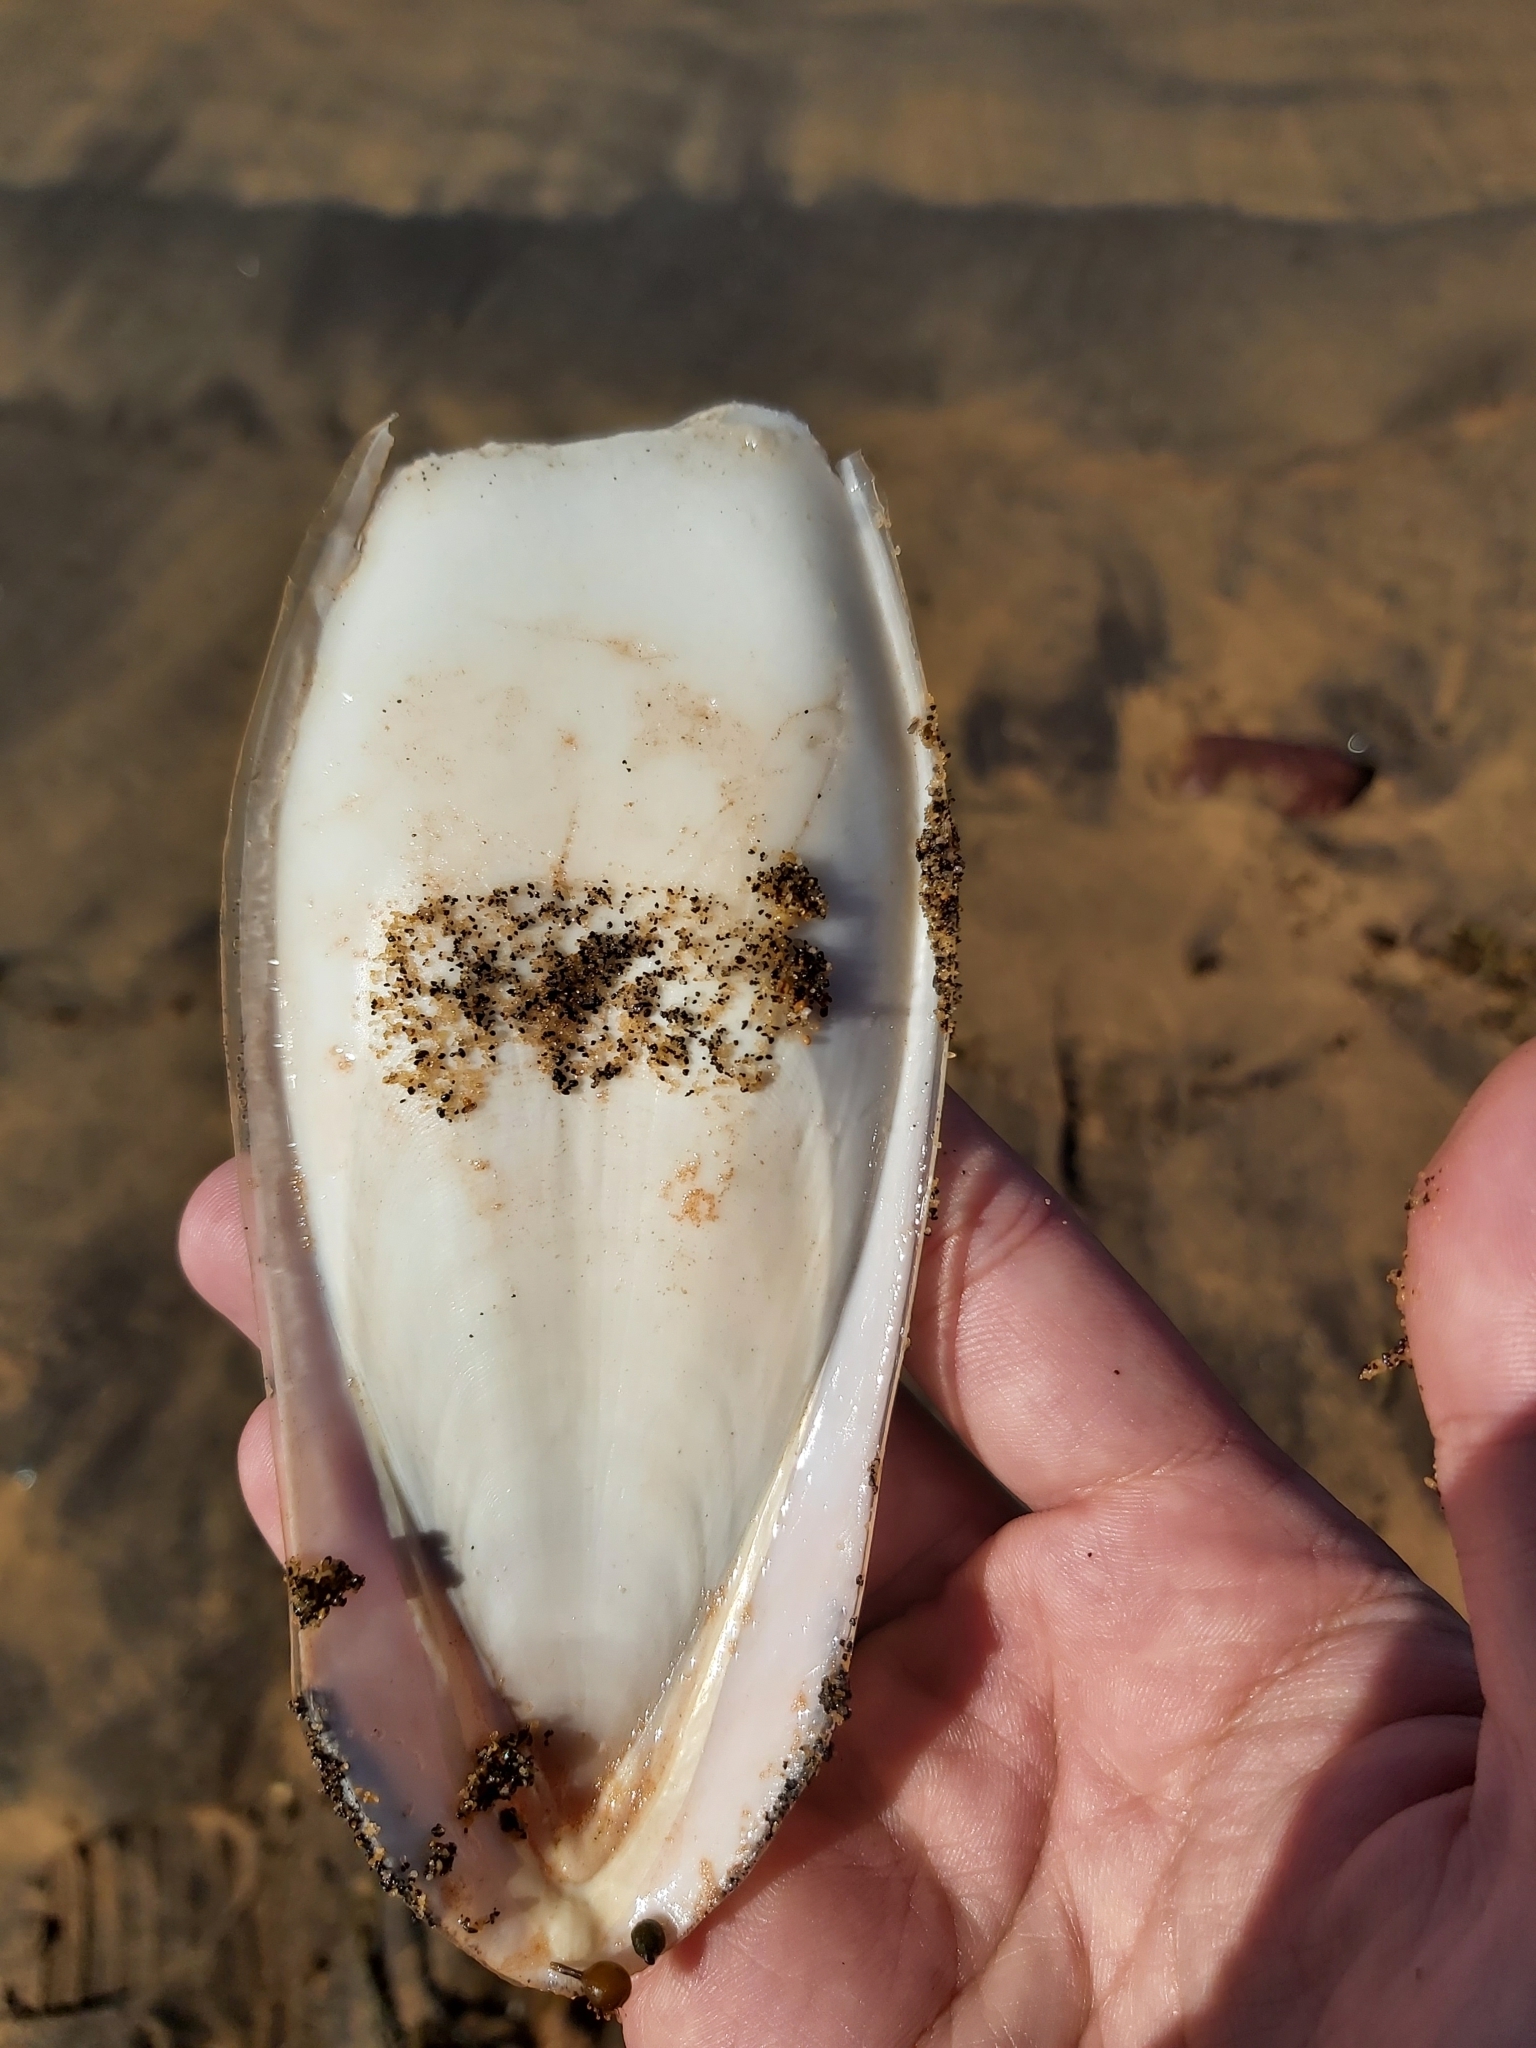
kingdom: Animalia
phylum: Mollusca
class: Cephalopoda
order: Sepiida
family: Sepiidae
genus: Ascarosepion
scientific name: Ascarosepion apama
